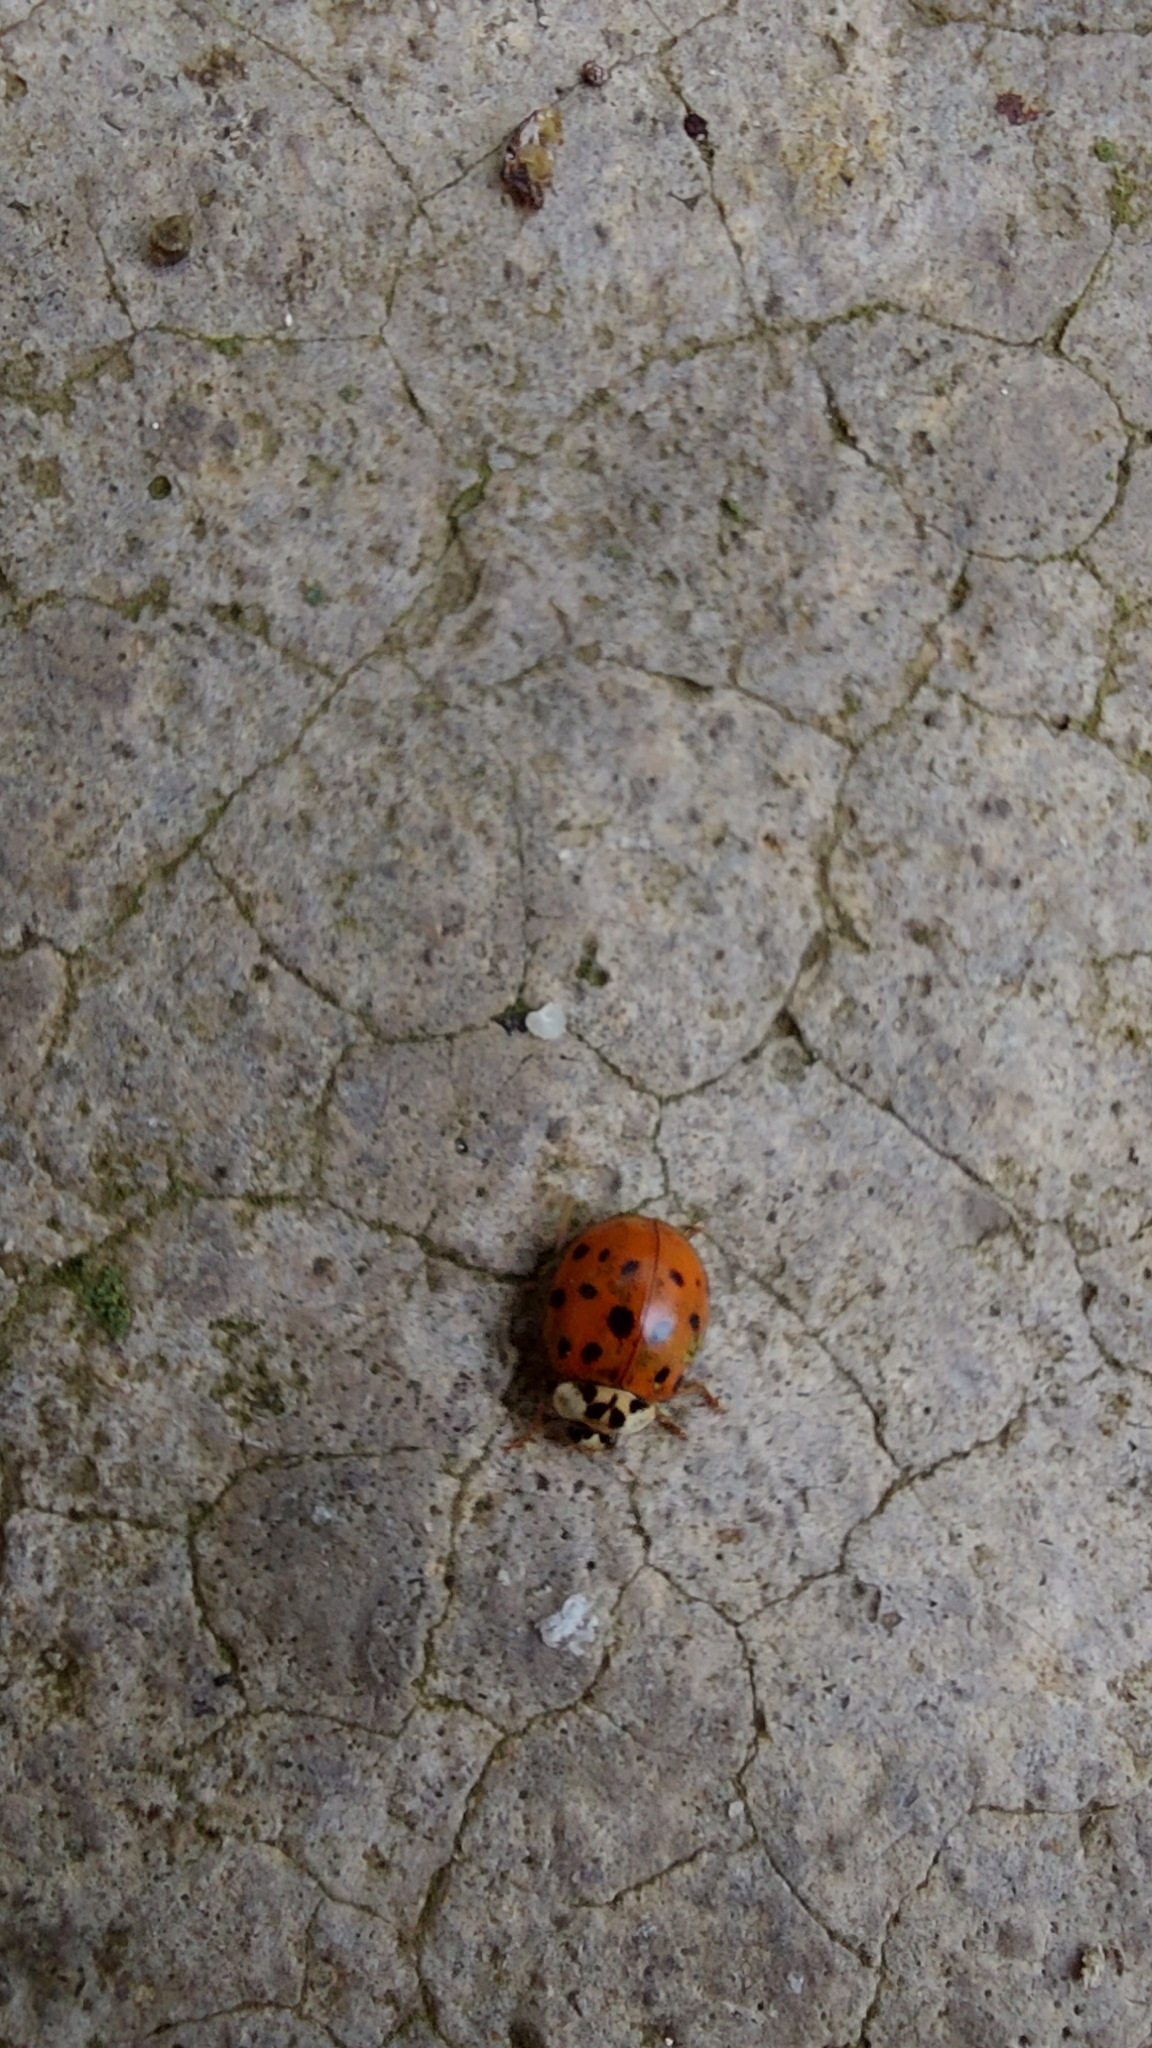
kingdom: Animalia
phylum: Arthropoda
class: Insecta
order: Coleoptera
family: Coccinellidae
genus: Harmonia
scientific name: Harmonia axyridis
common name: Harlequin ladybird
